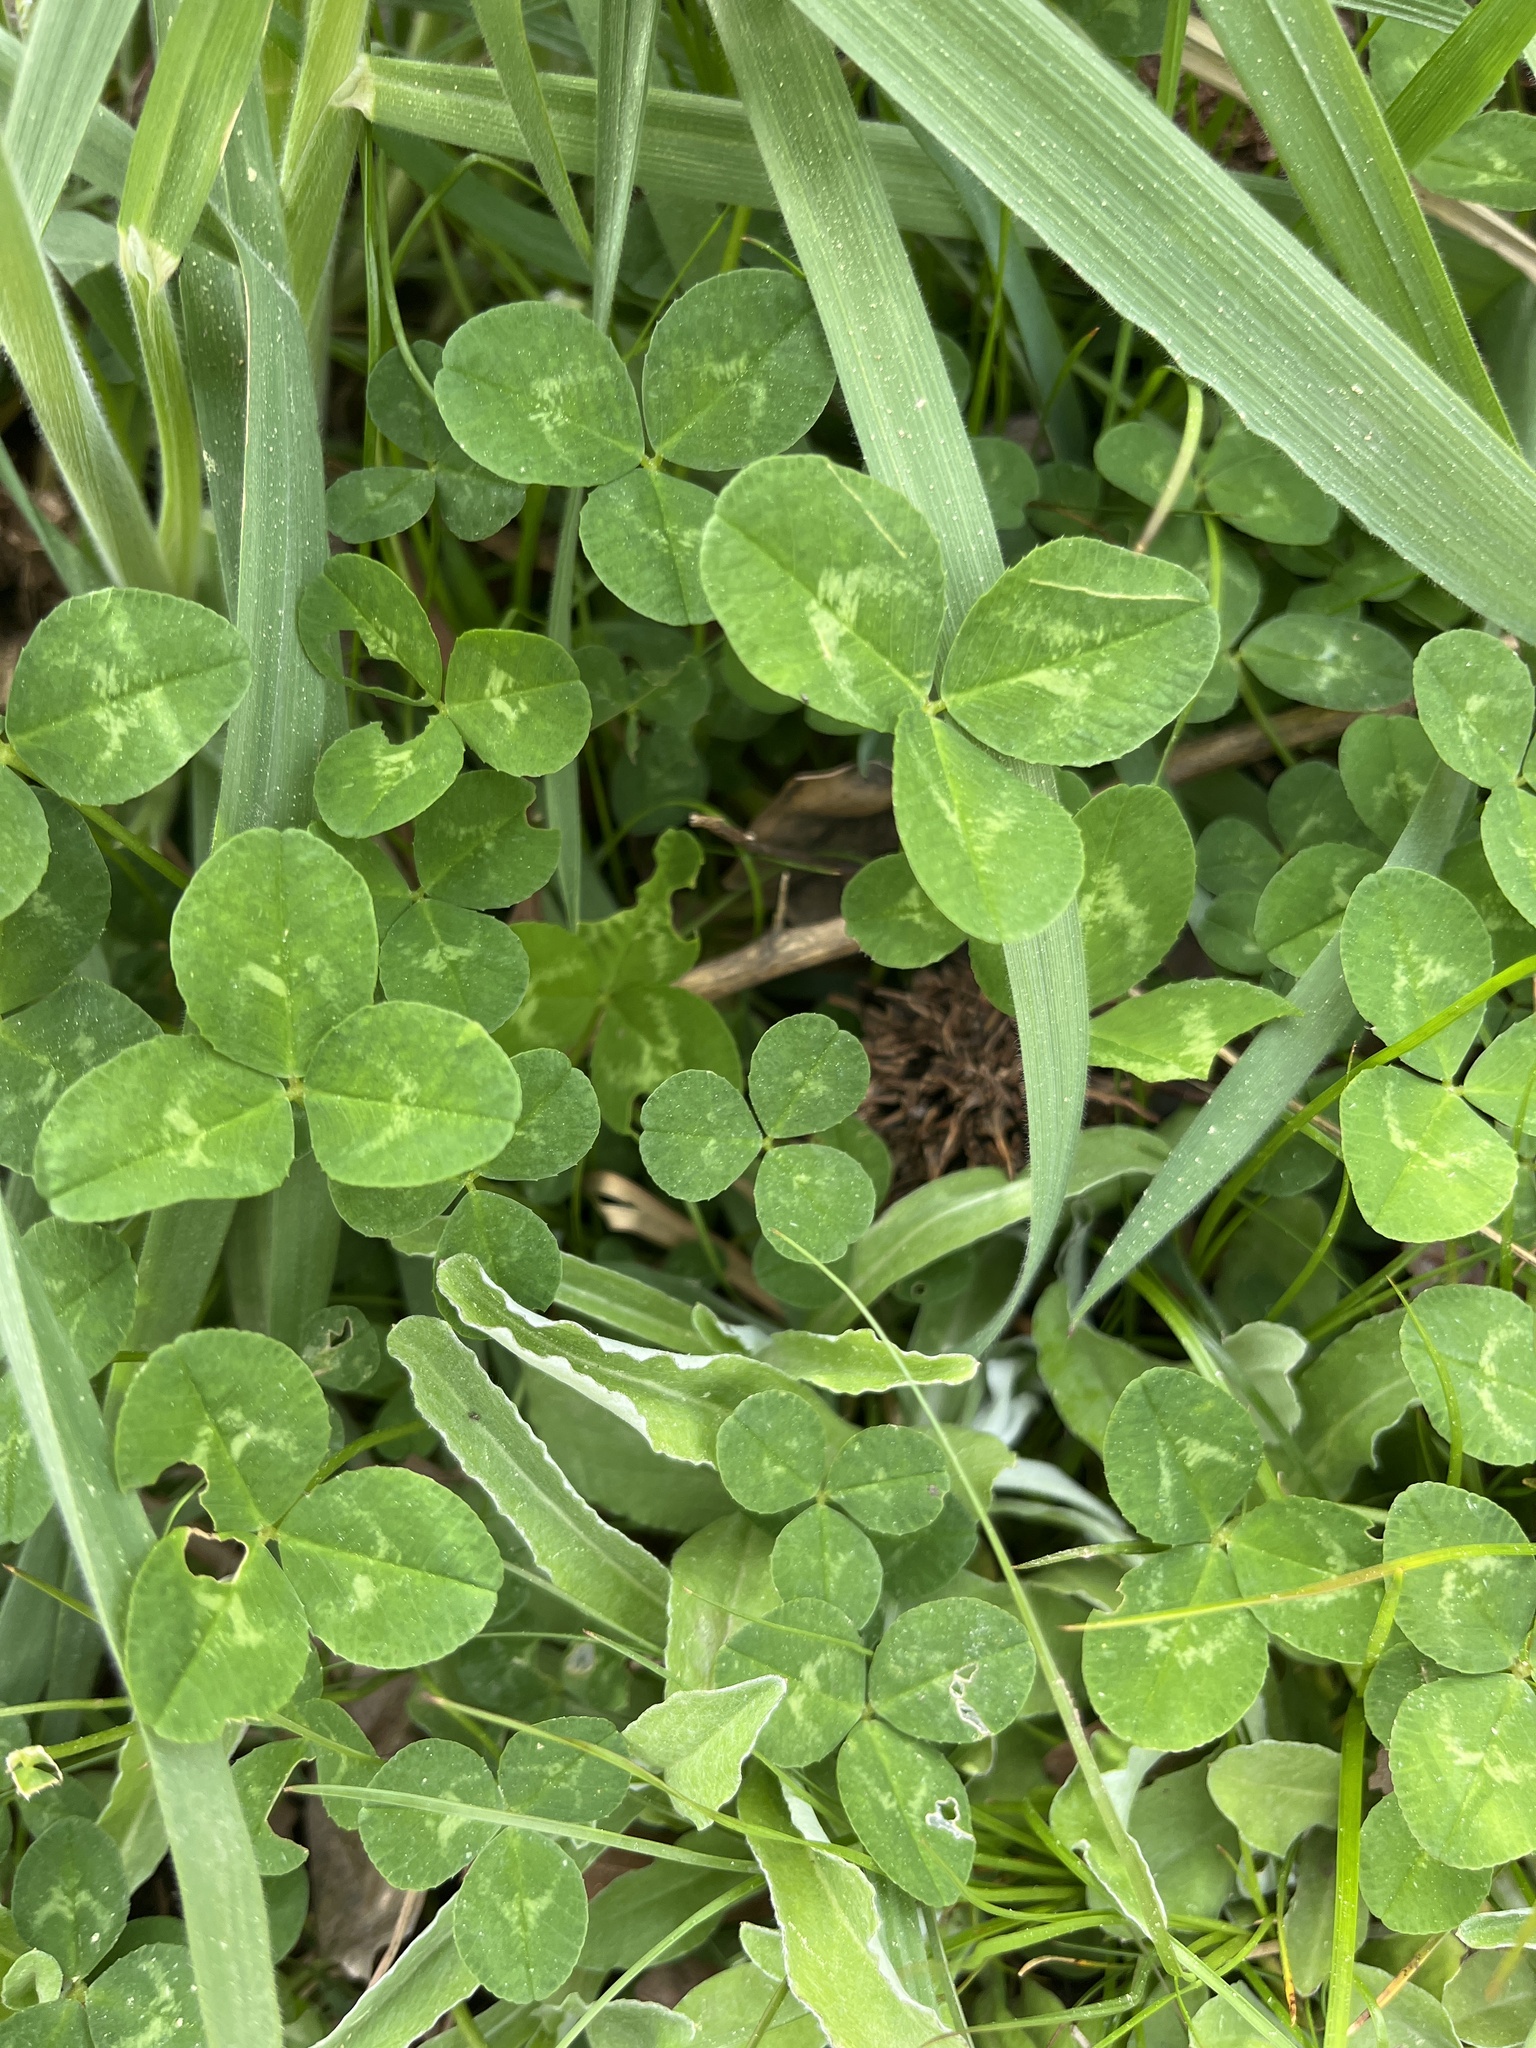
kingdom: Plantae
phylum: Tracheophyta
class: Magnoliopsida
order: Fabales
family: Fabaceae
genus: Trifolium
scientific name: Trifolium repens
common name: White clover
